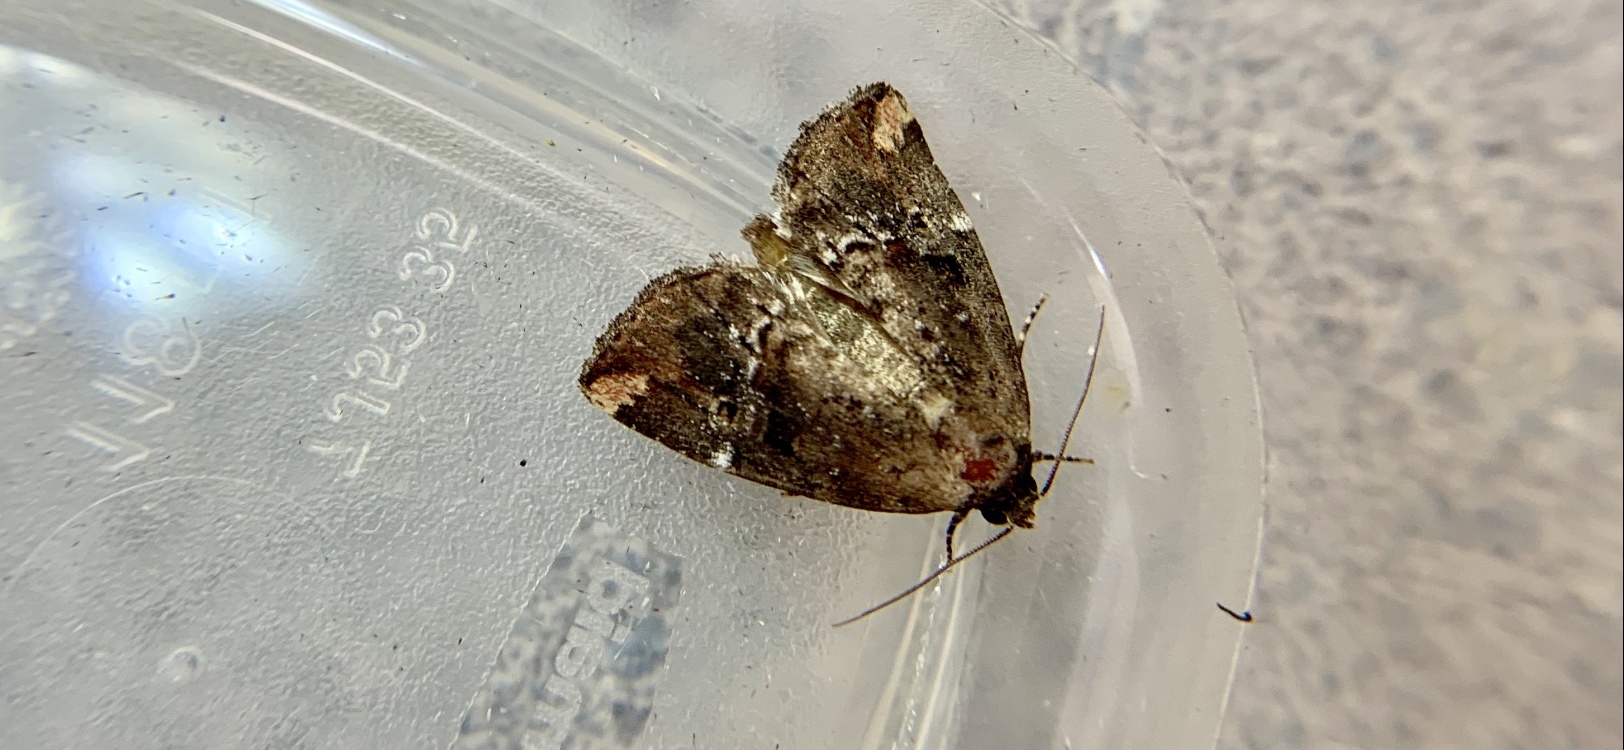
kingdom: Animalia
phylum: Arthropoda
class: Insecta
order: Lepidoptera
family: Noctuidae
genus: Elaphria
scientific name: Elaphria versicolor
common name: Fir harlequin
